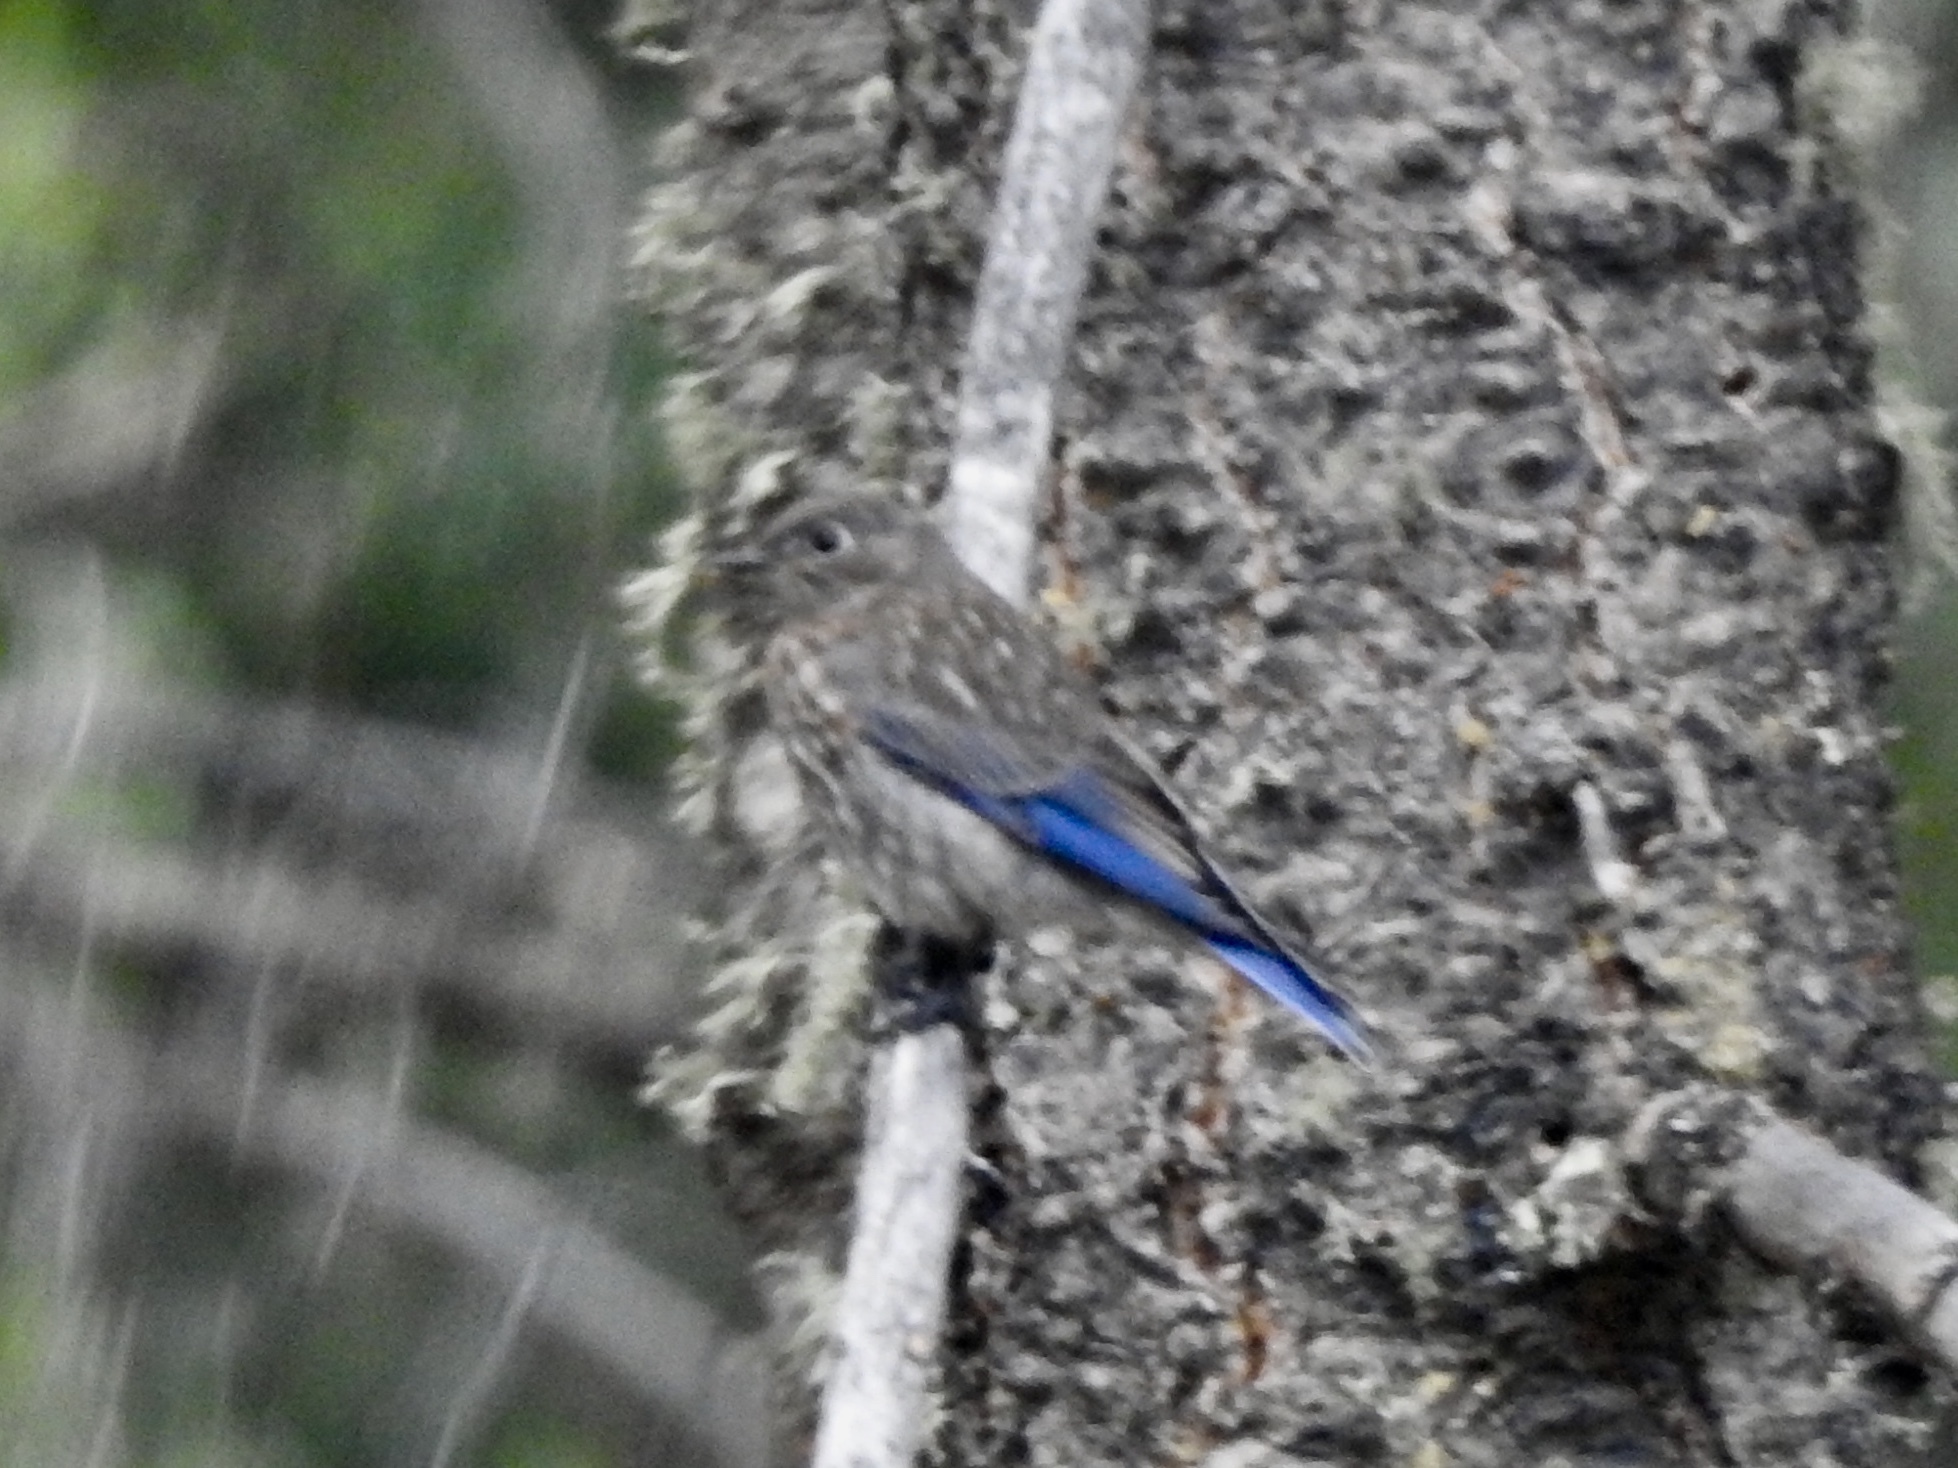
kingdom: Animalia
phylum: Chordata
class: Aves
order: Passeriformes
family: Turdidae
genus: Sialia
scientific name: Sialia mexicana
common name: Western bluebird
